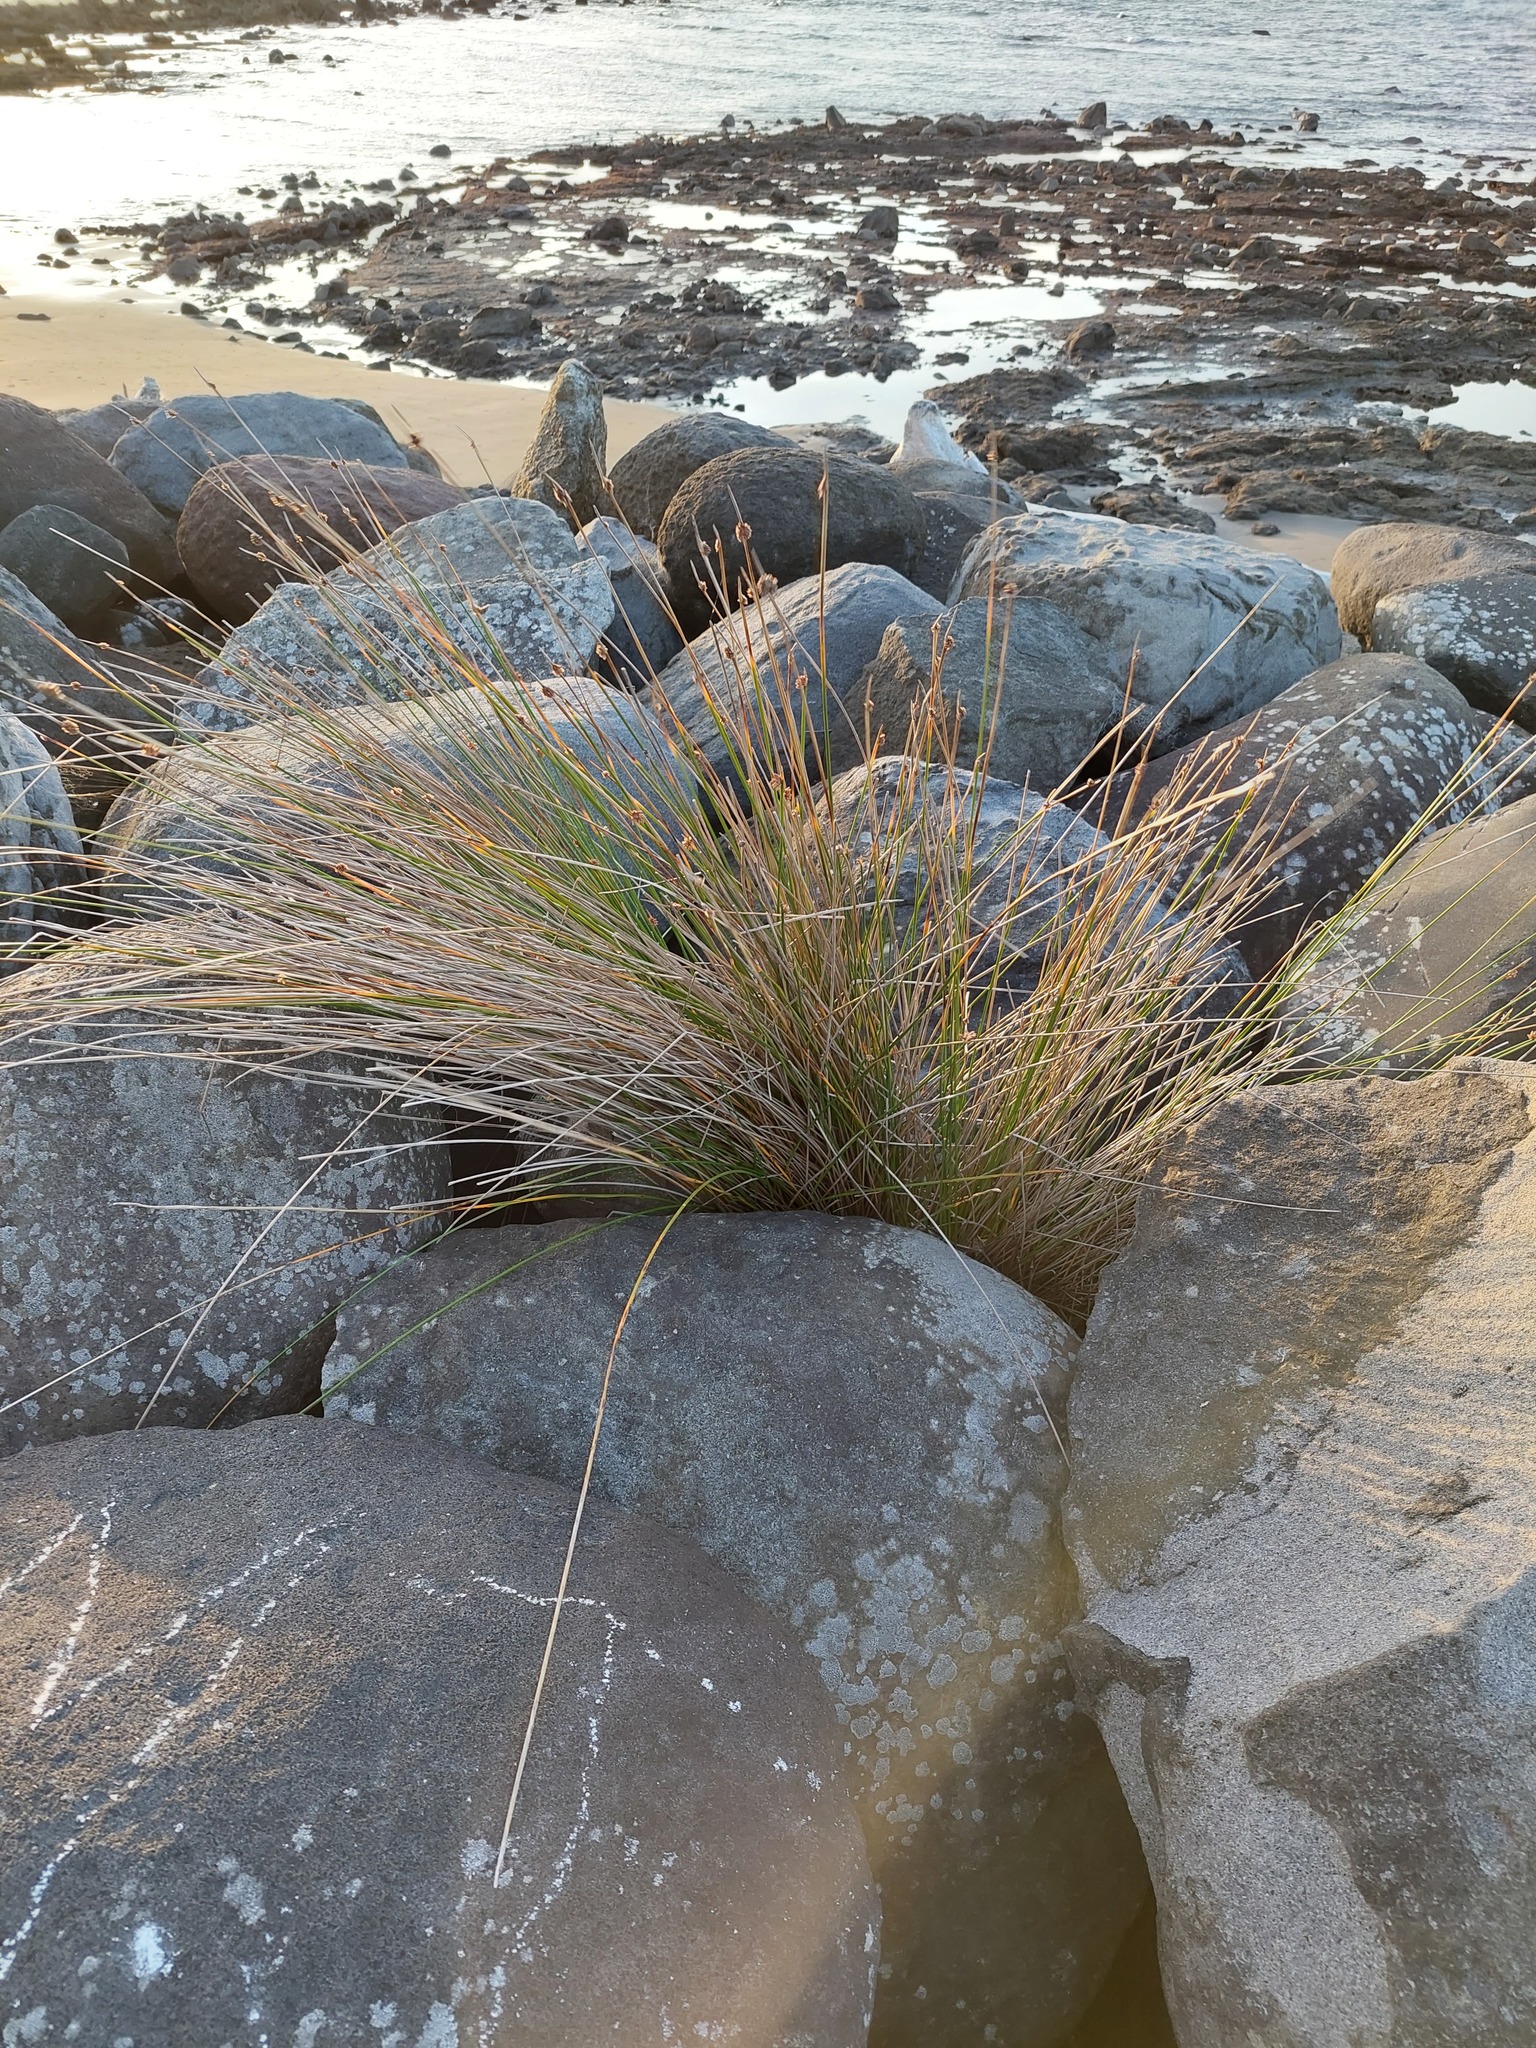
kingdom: Plantae
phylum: Tracheophyta
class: Liliopsida
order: Poales
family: Cyperaceae
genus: Ficinia
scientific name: Ficinia nodosa
